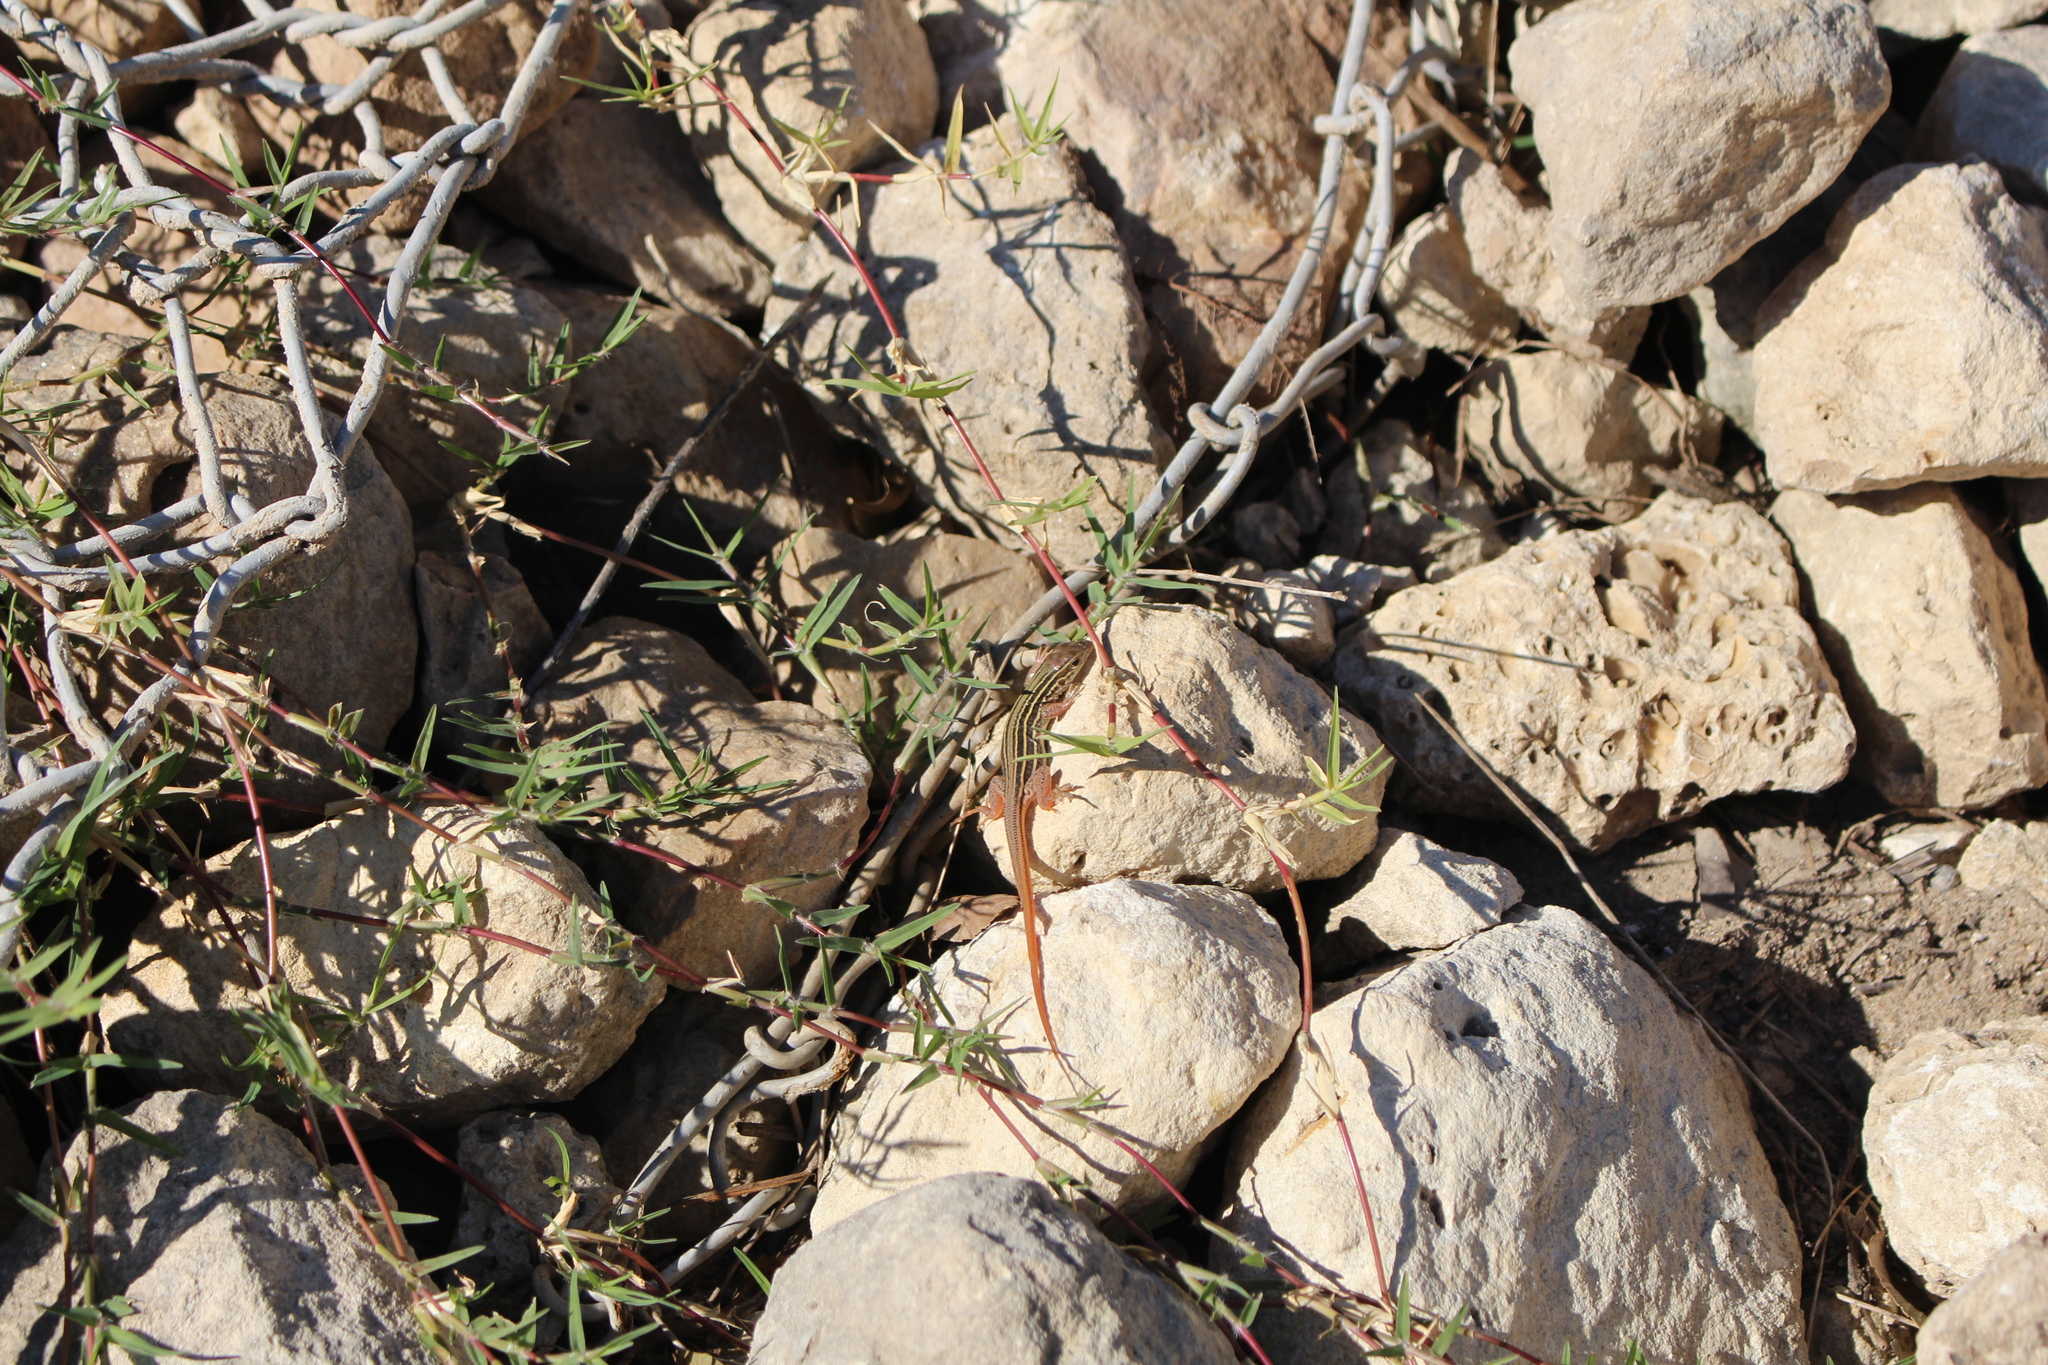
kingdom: Animalia
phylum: Chordata
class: Squamata
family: Teiidae
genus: Aspidoscelis
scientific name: Aspidoscelis gularis
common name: Eastern spotted whiptail
